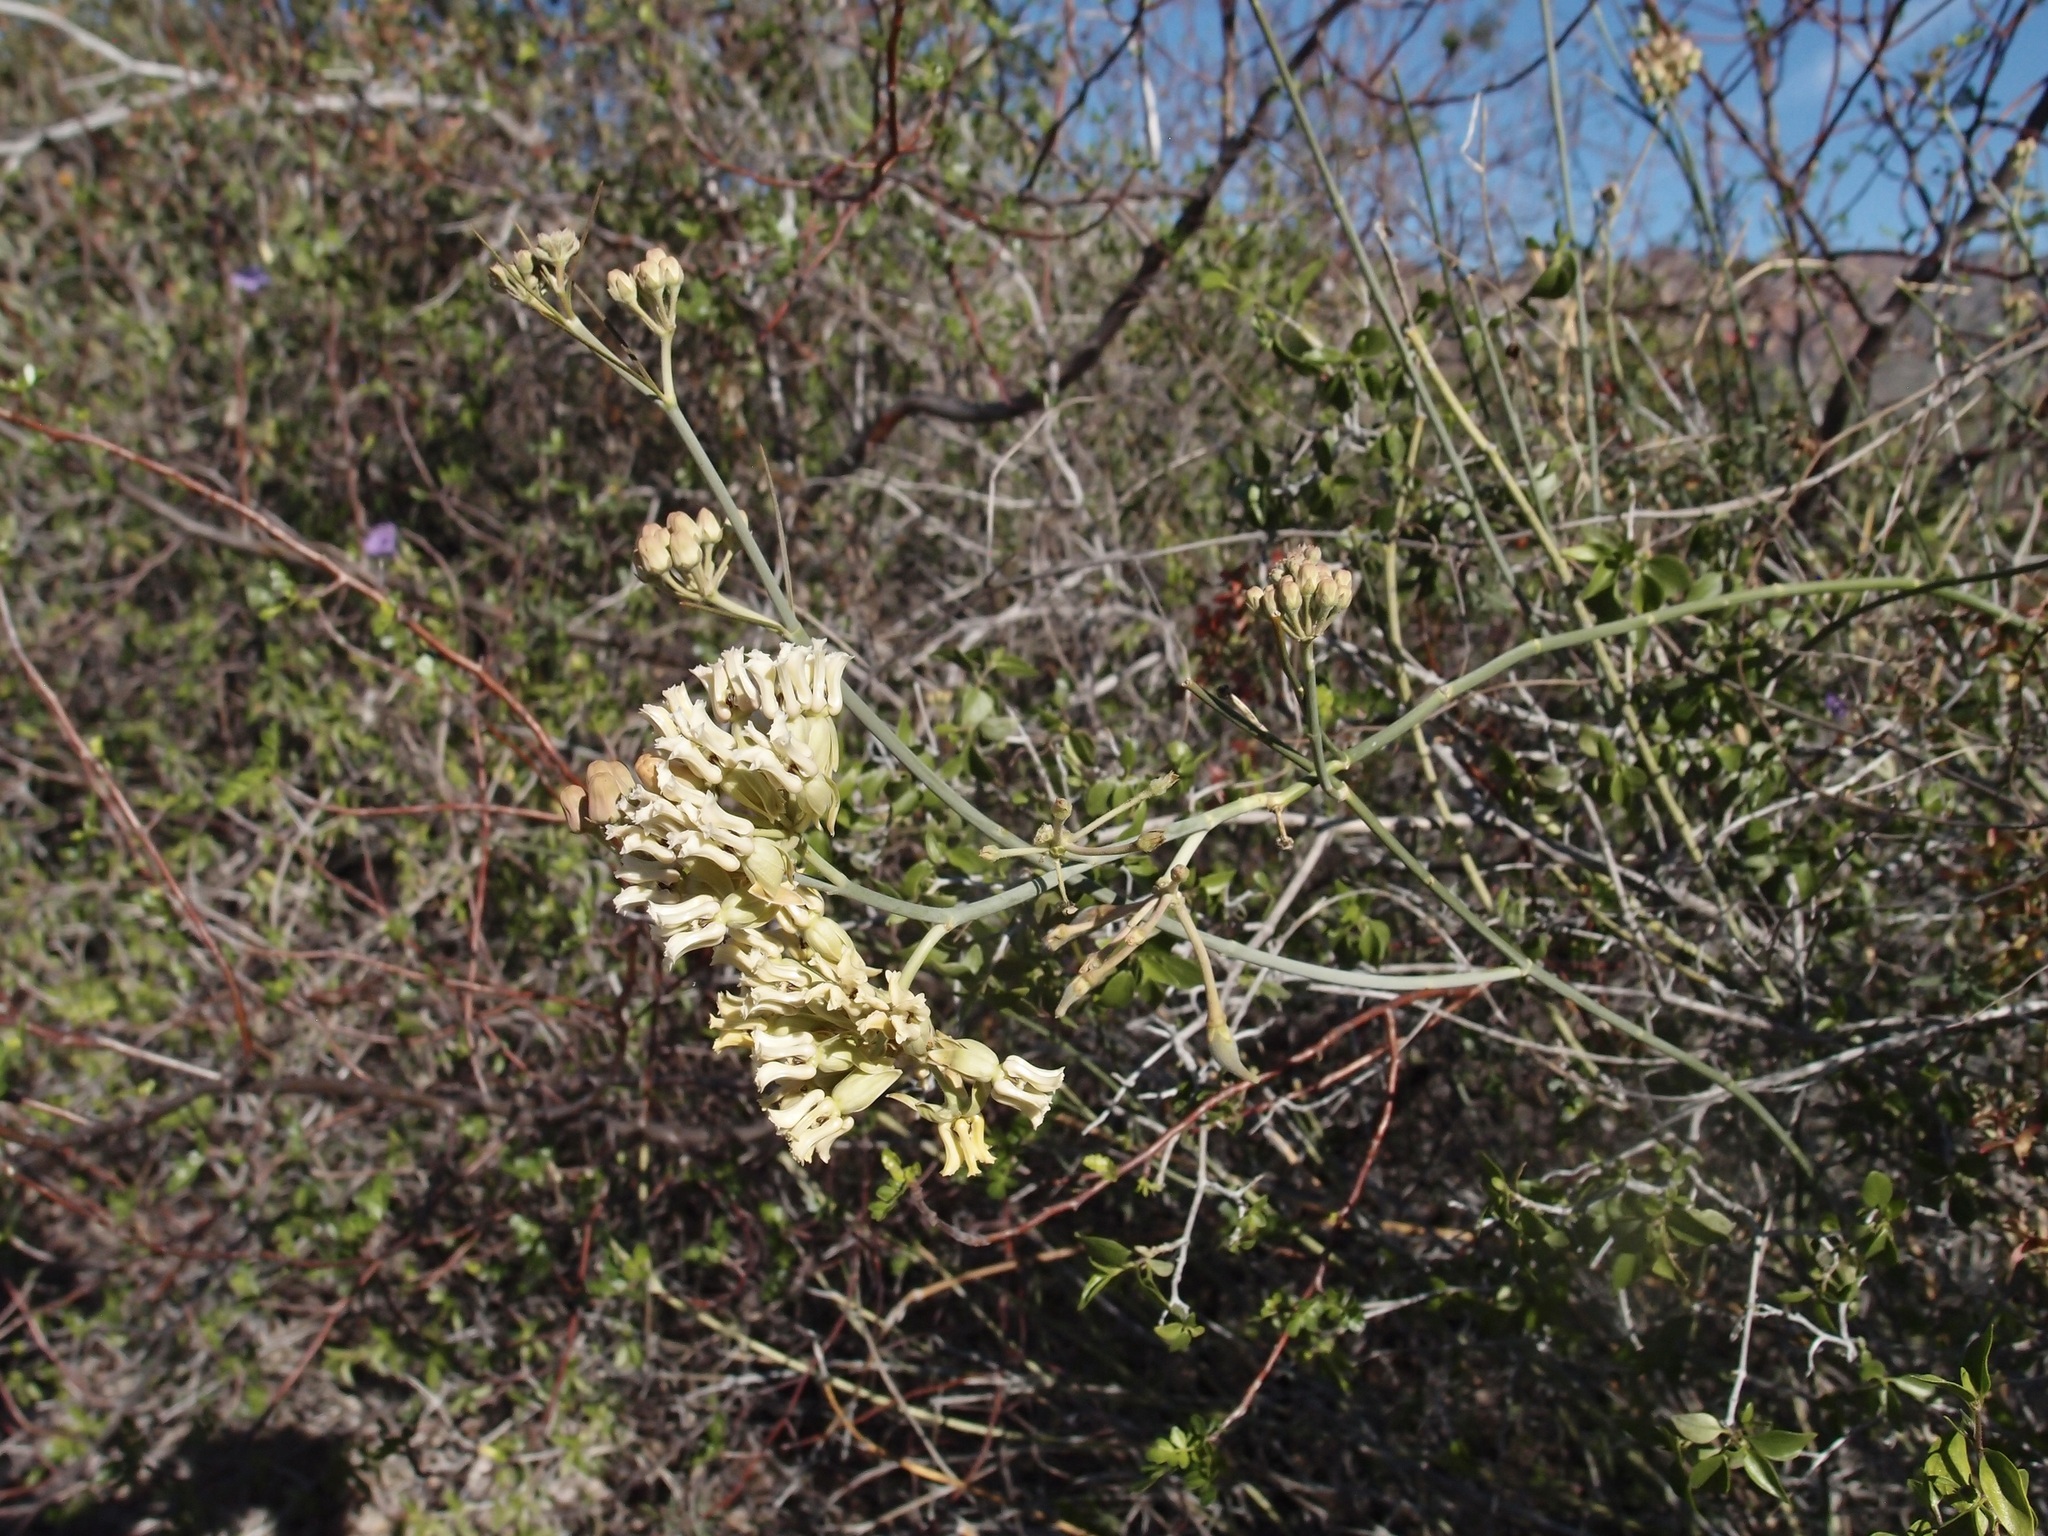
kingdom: Plantae
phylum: Tracheophyta
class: Magnoliopsida
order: Gentianales
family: Apocynaceae
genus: Asclepias
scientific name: Asclepias subulata
